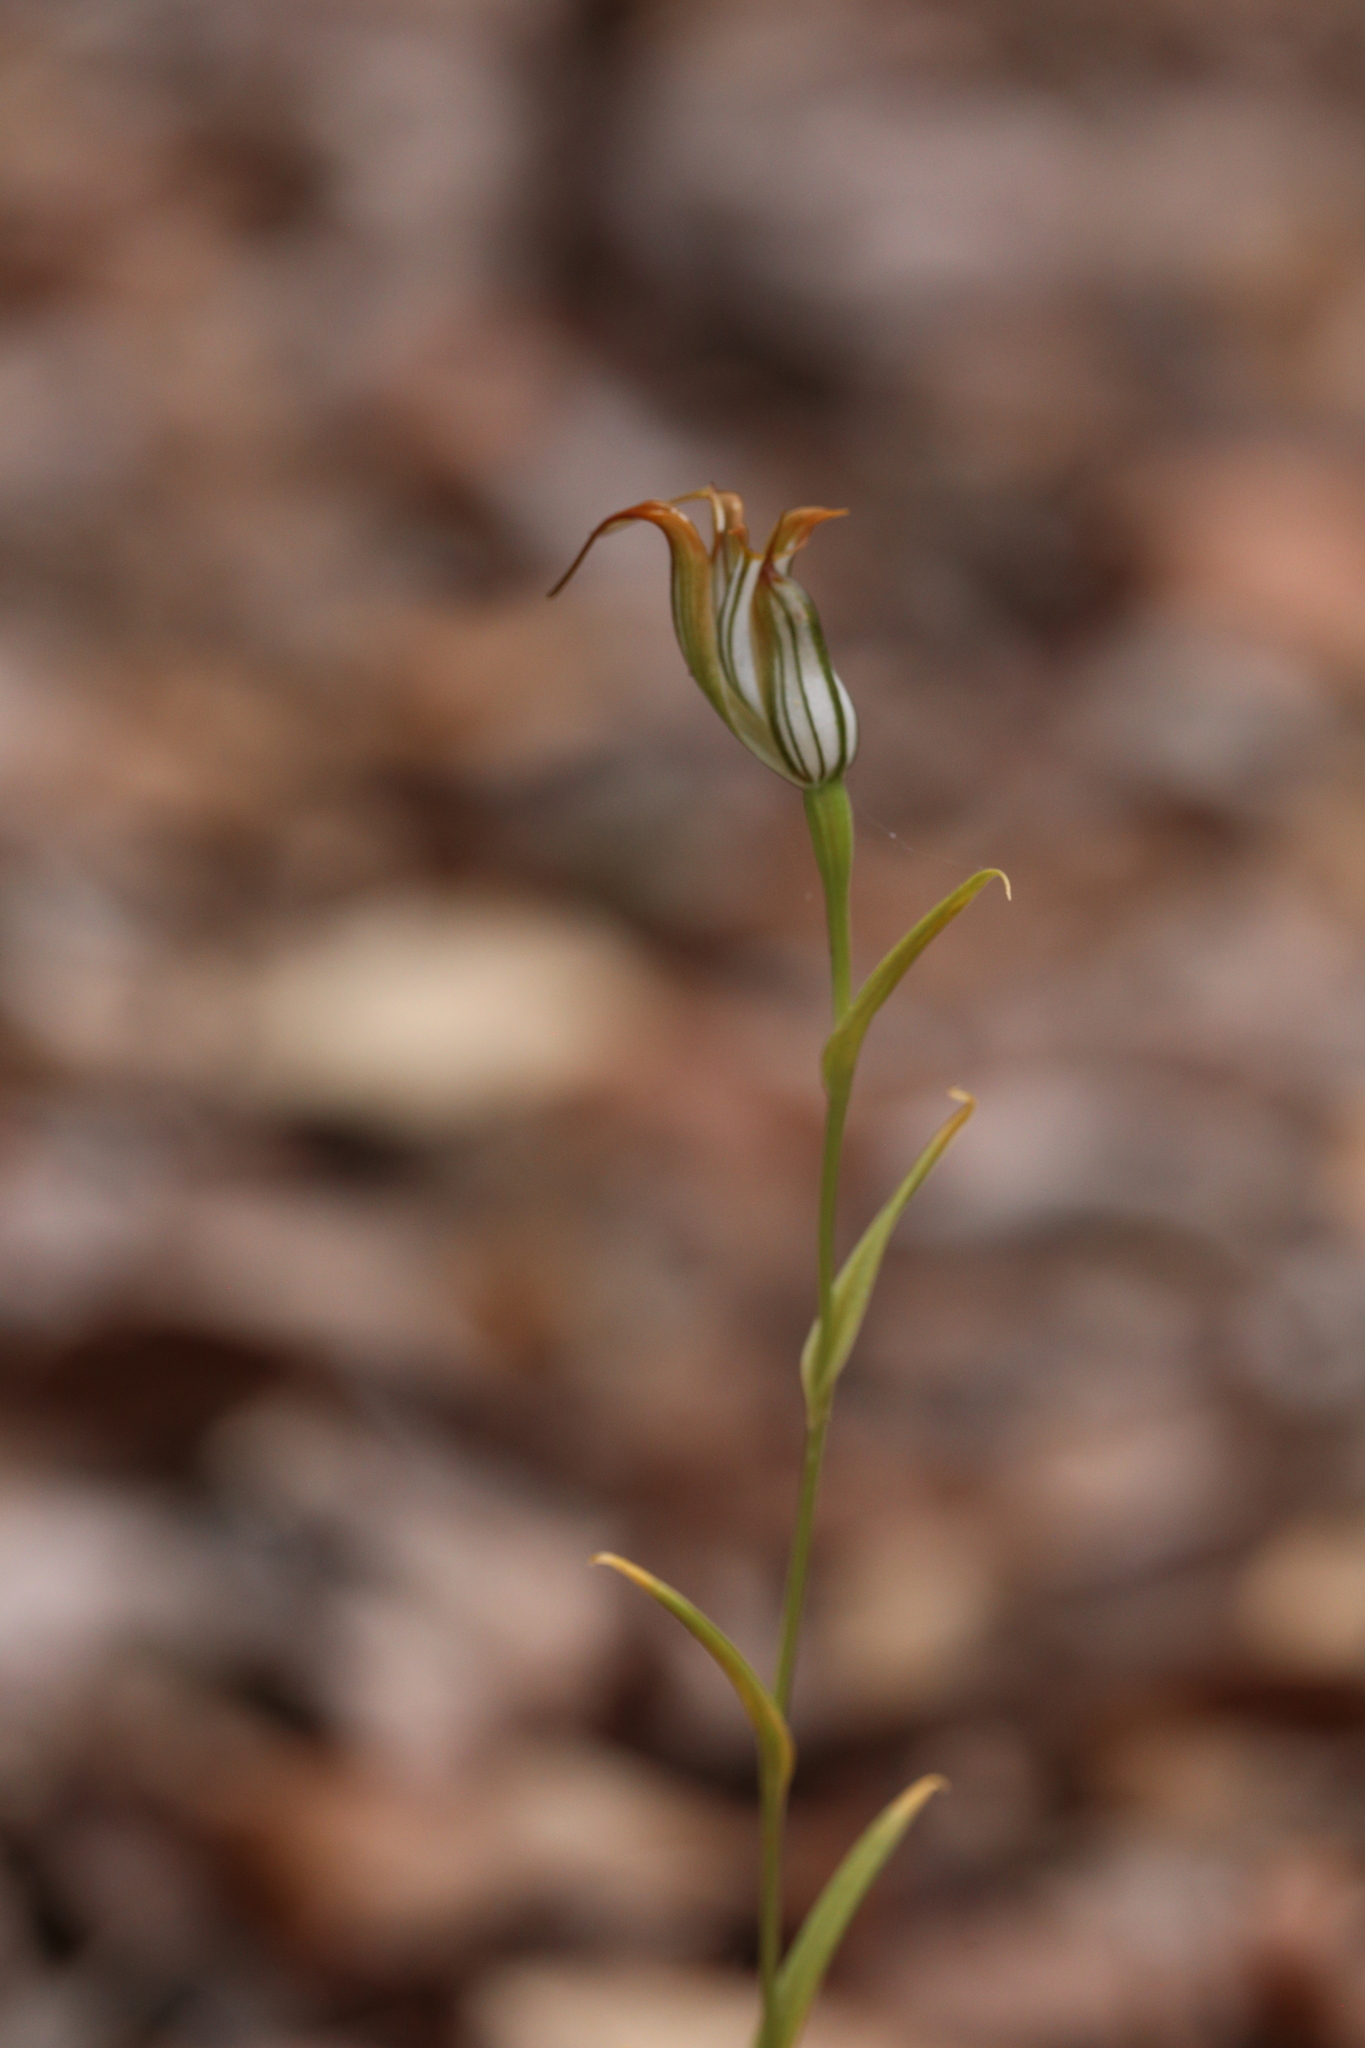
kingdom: Plantae
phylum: Tracheophyta
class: Liliopsida
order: Asparagales
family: Orchidaceae
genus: Pterostylis
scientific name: Pterostylis recurva
